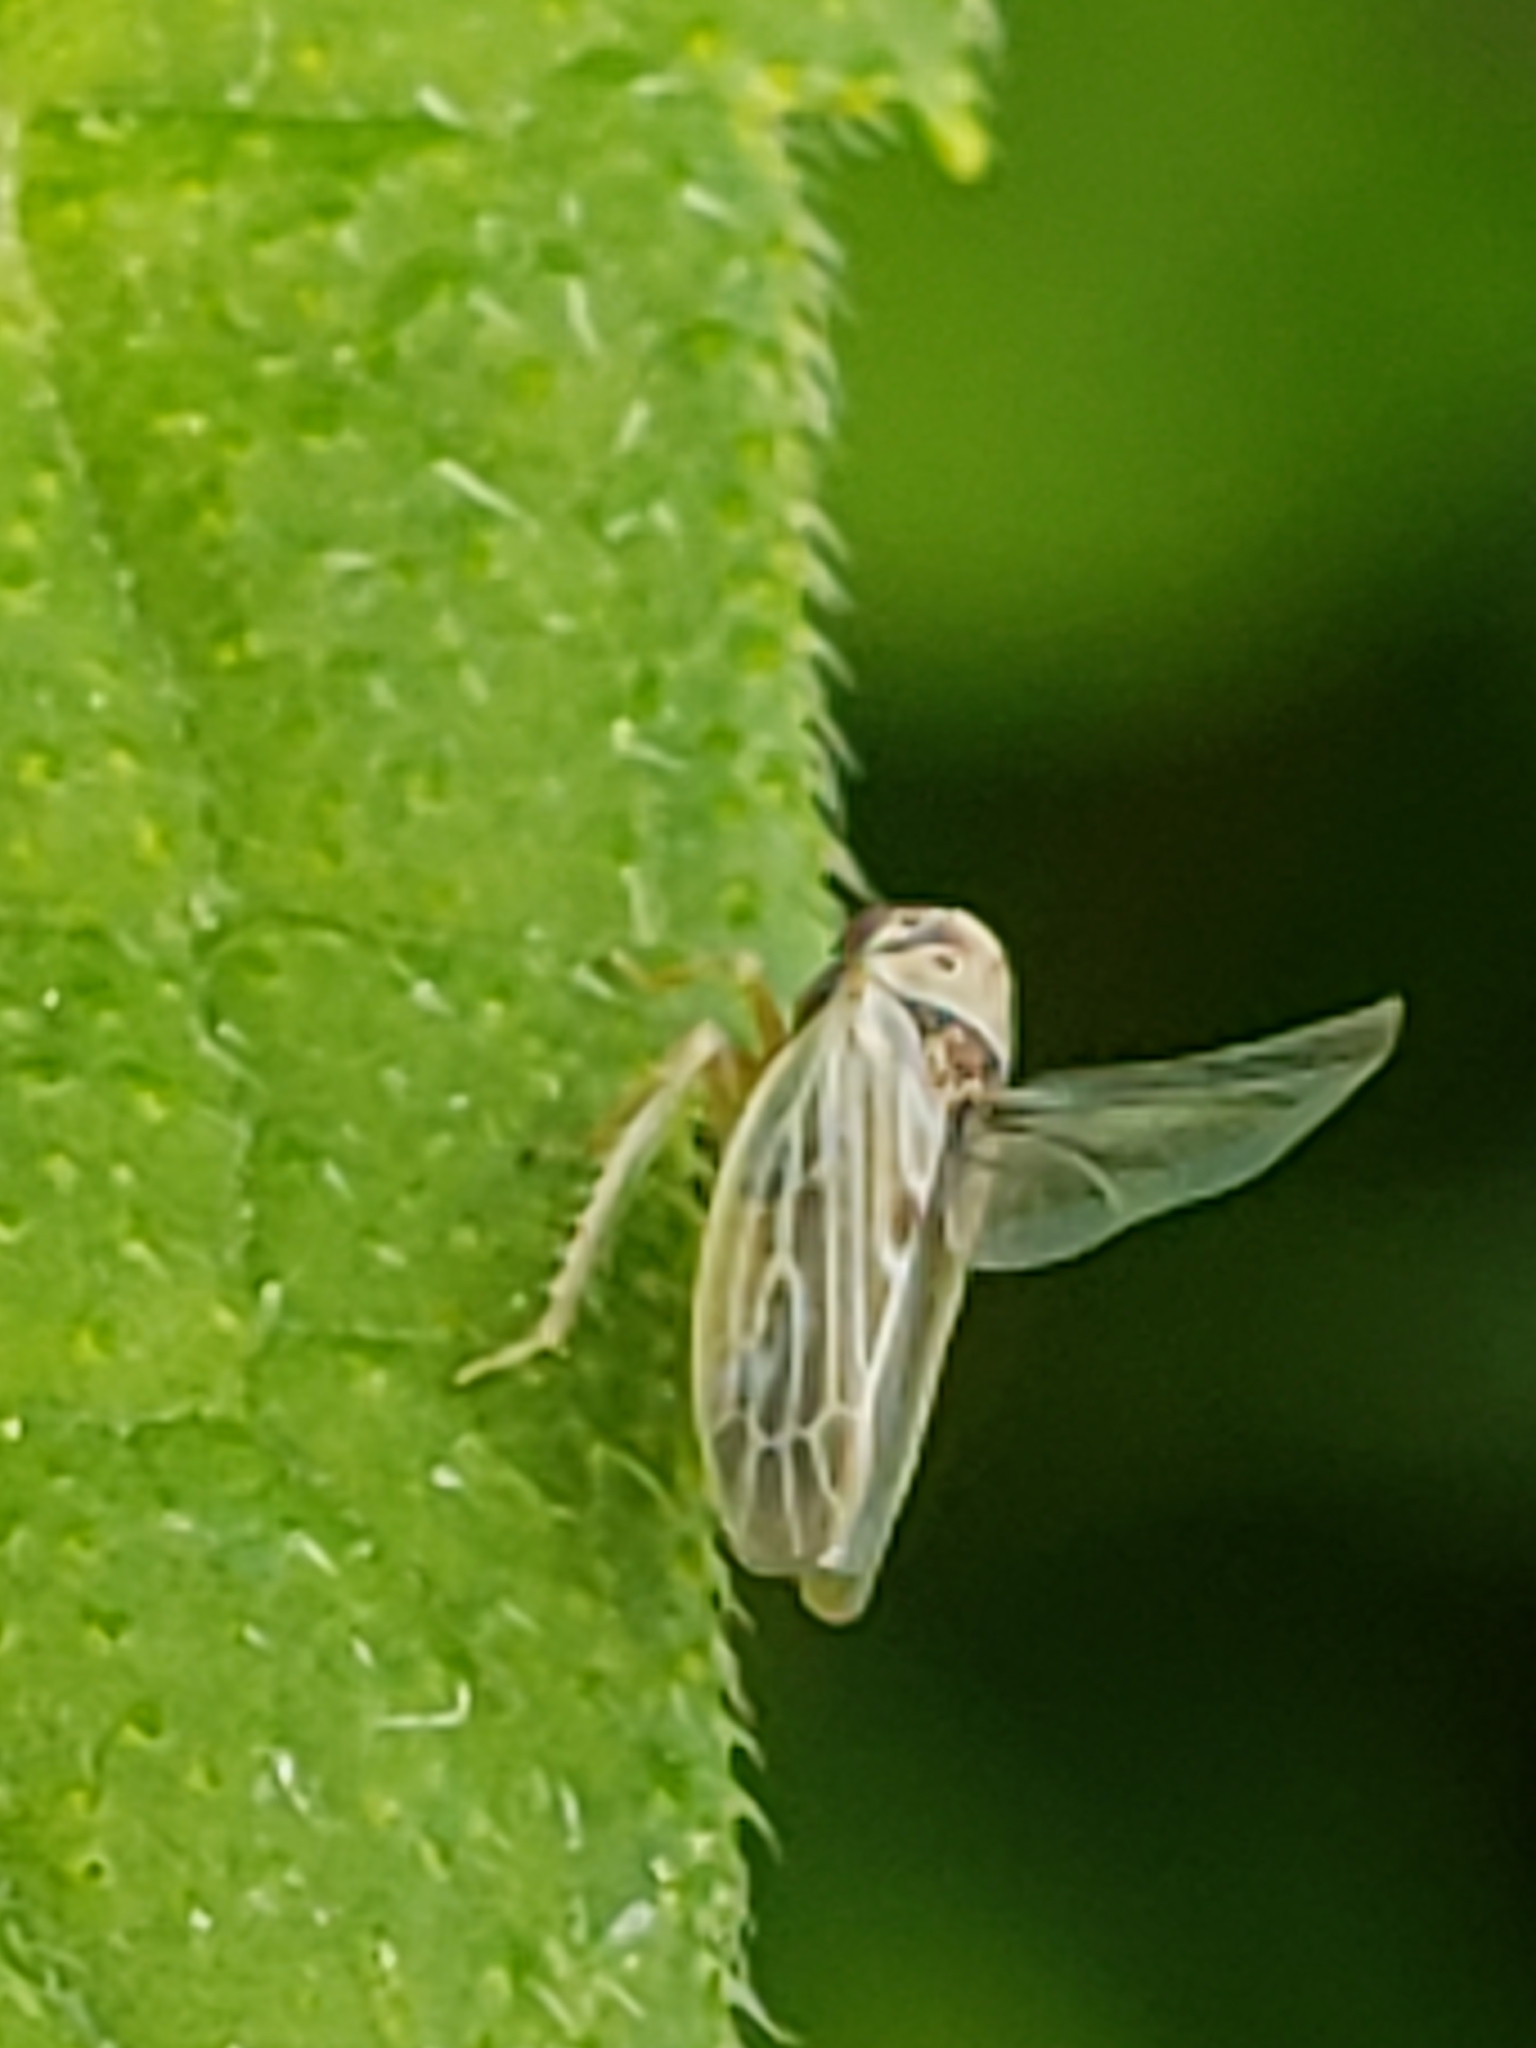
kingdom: Animalia
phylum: Arthropoda
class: Insecta
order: Hemiptera
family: Cicadellidae
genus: Agalliopsis
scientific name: Agalliopsis ancistra
